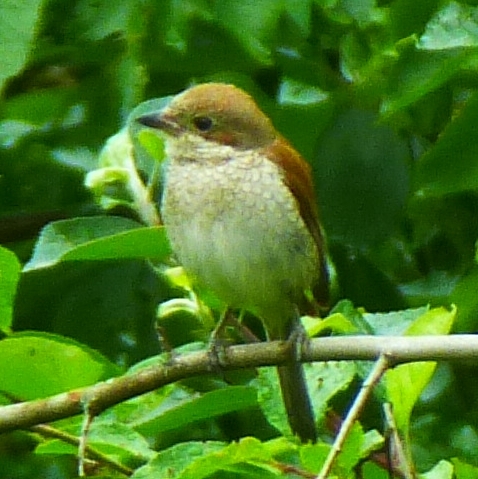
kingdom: Animalia
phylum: Chordata
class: Aves
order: Passeriformes
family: Laniidae
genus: Lanius
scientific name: Lanius collurio
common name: Red-backed shrike
